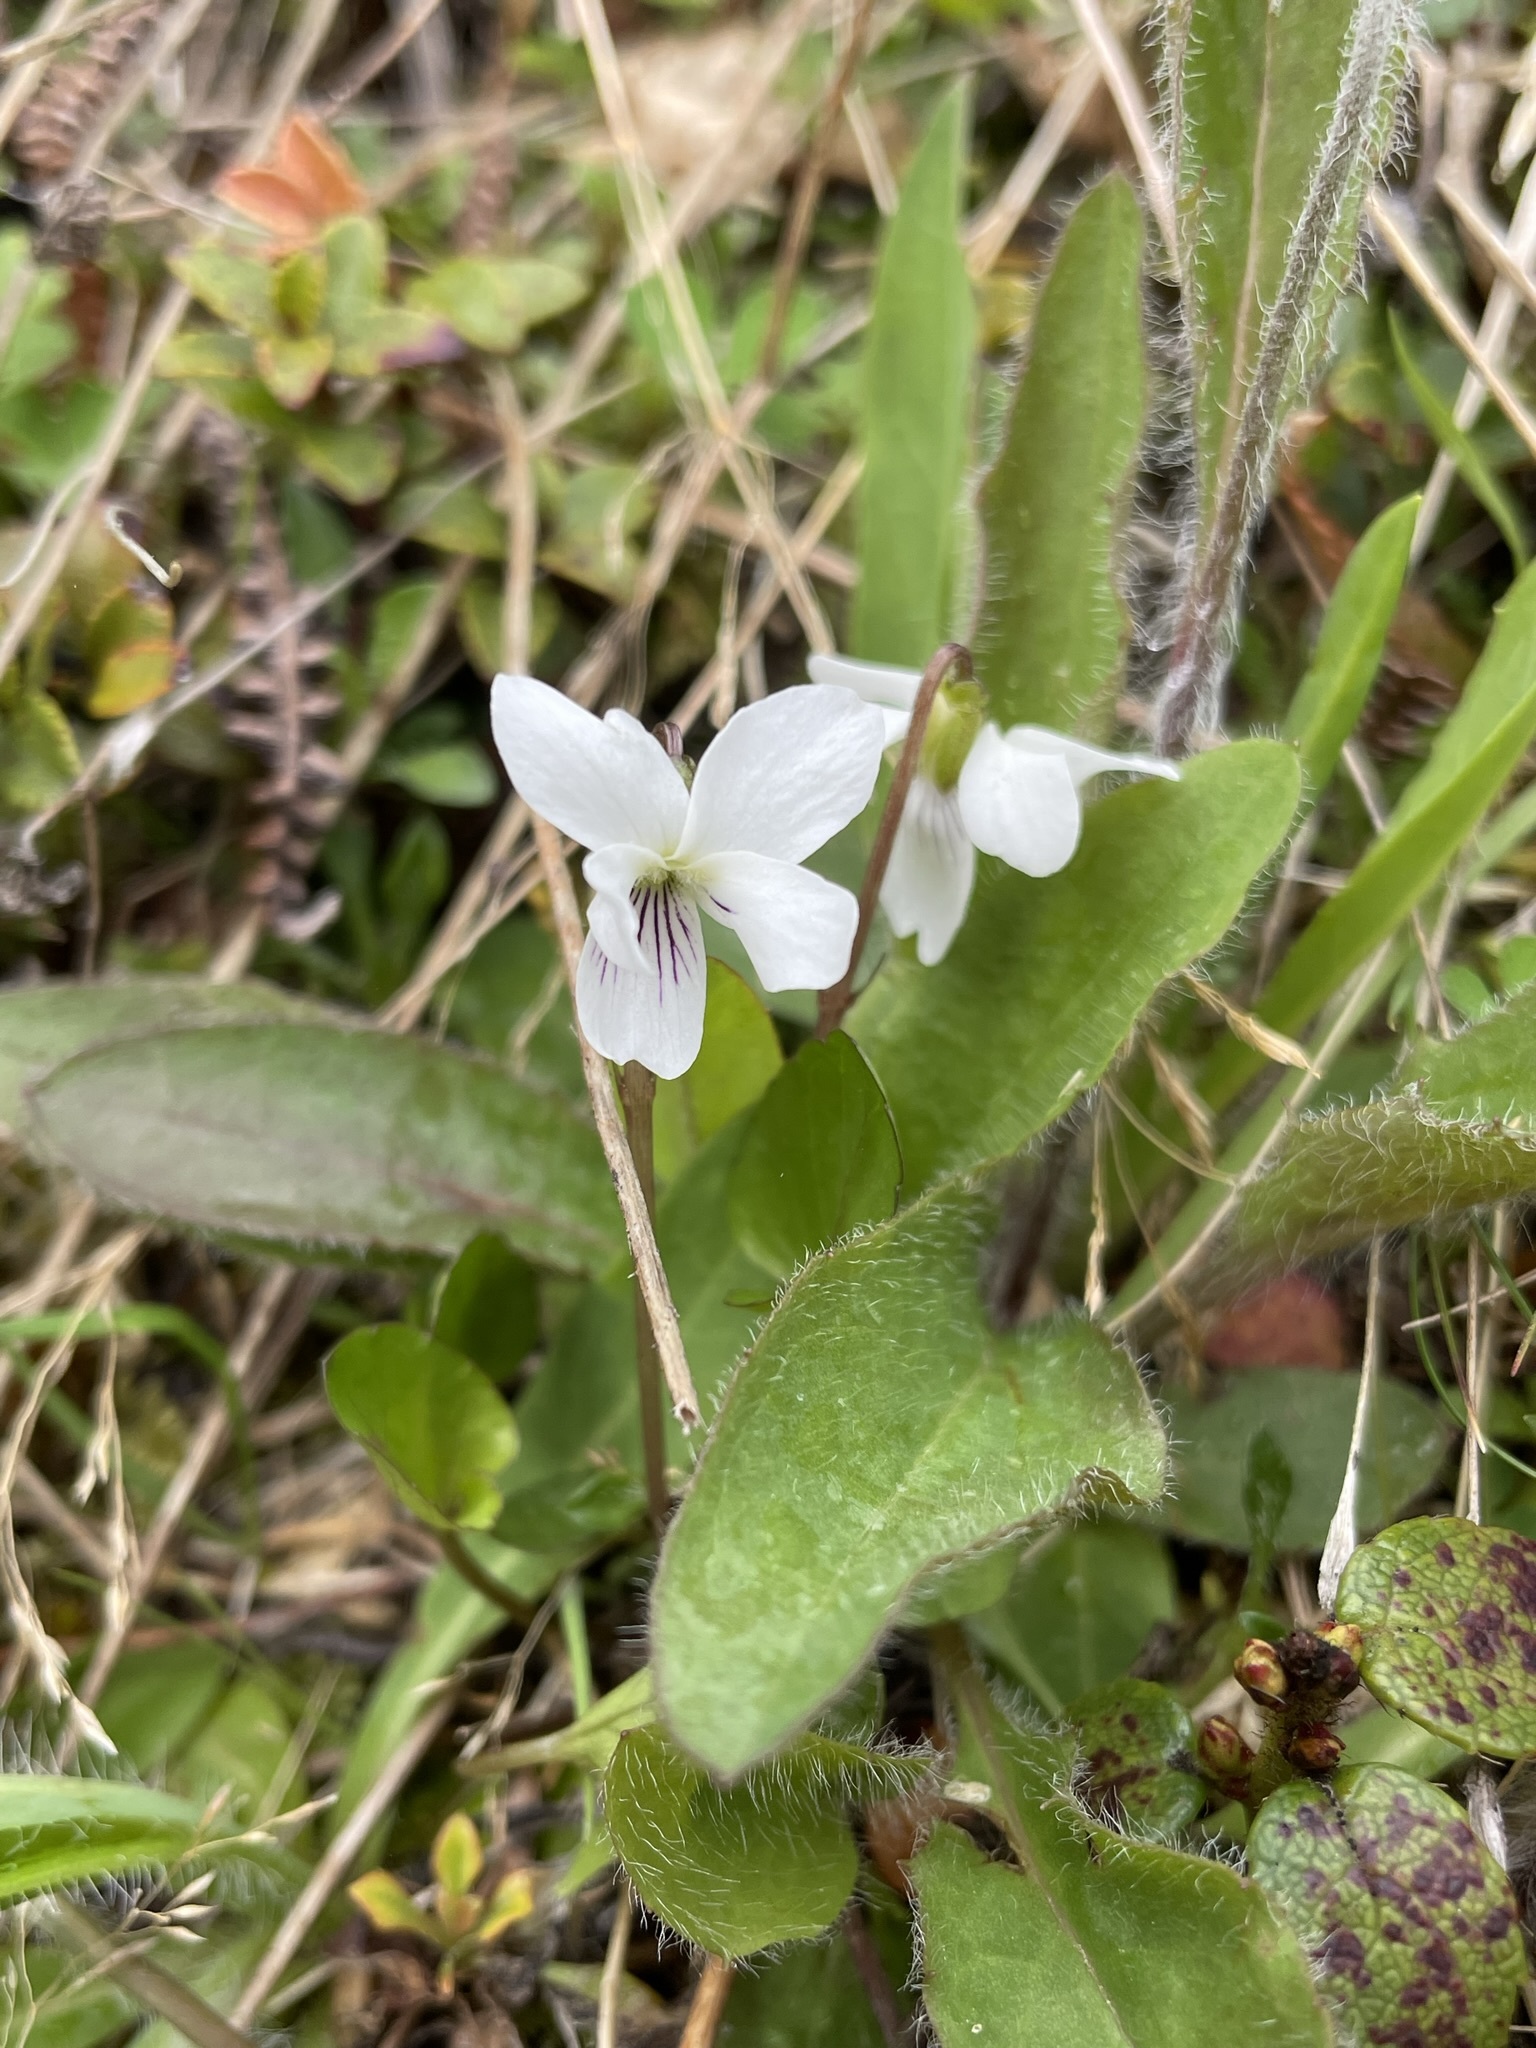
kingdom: Plantae
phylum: Tracheophyta
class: Magnoliopsida
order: Malpighiales
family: Violaceae
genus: Viola
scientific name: Viola cunninghamii
